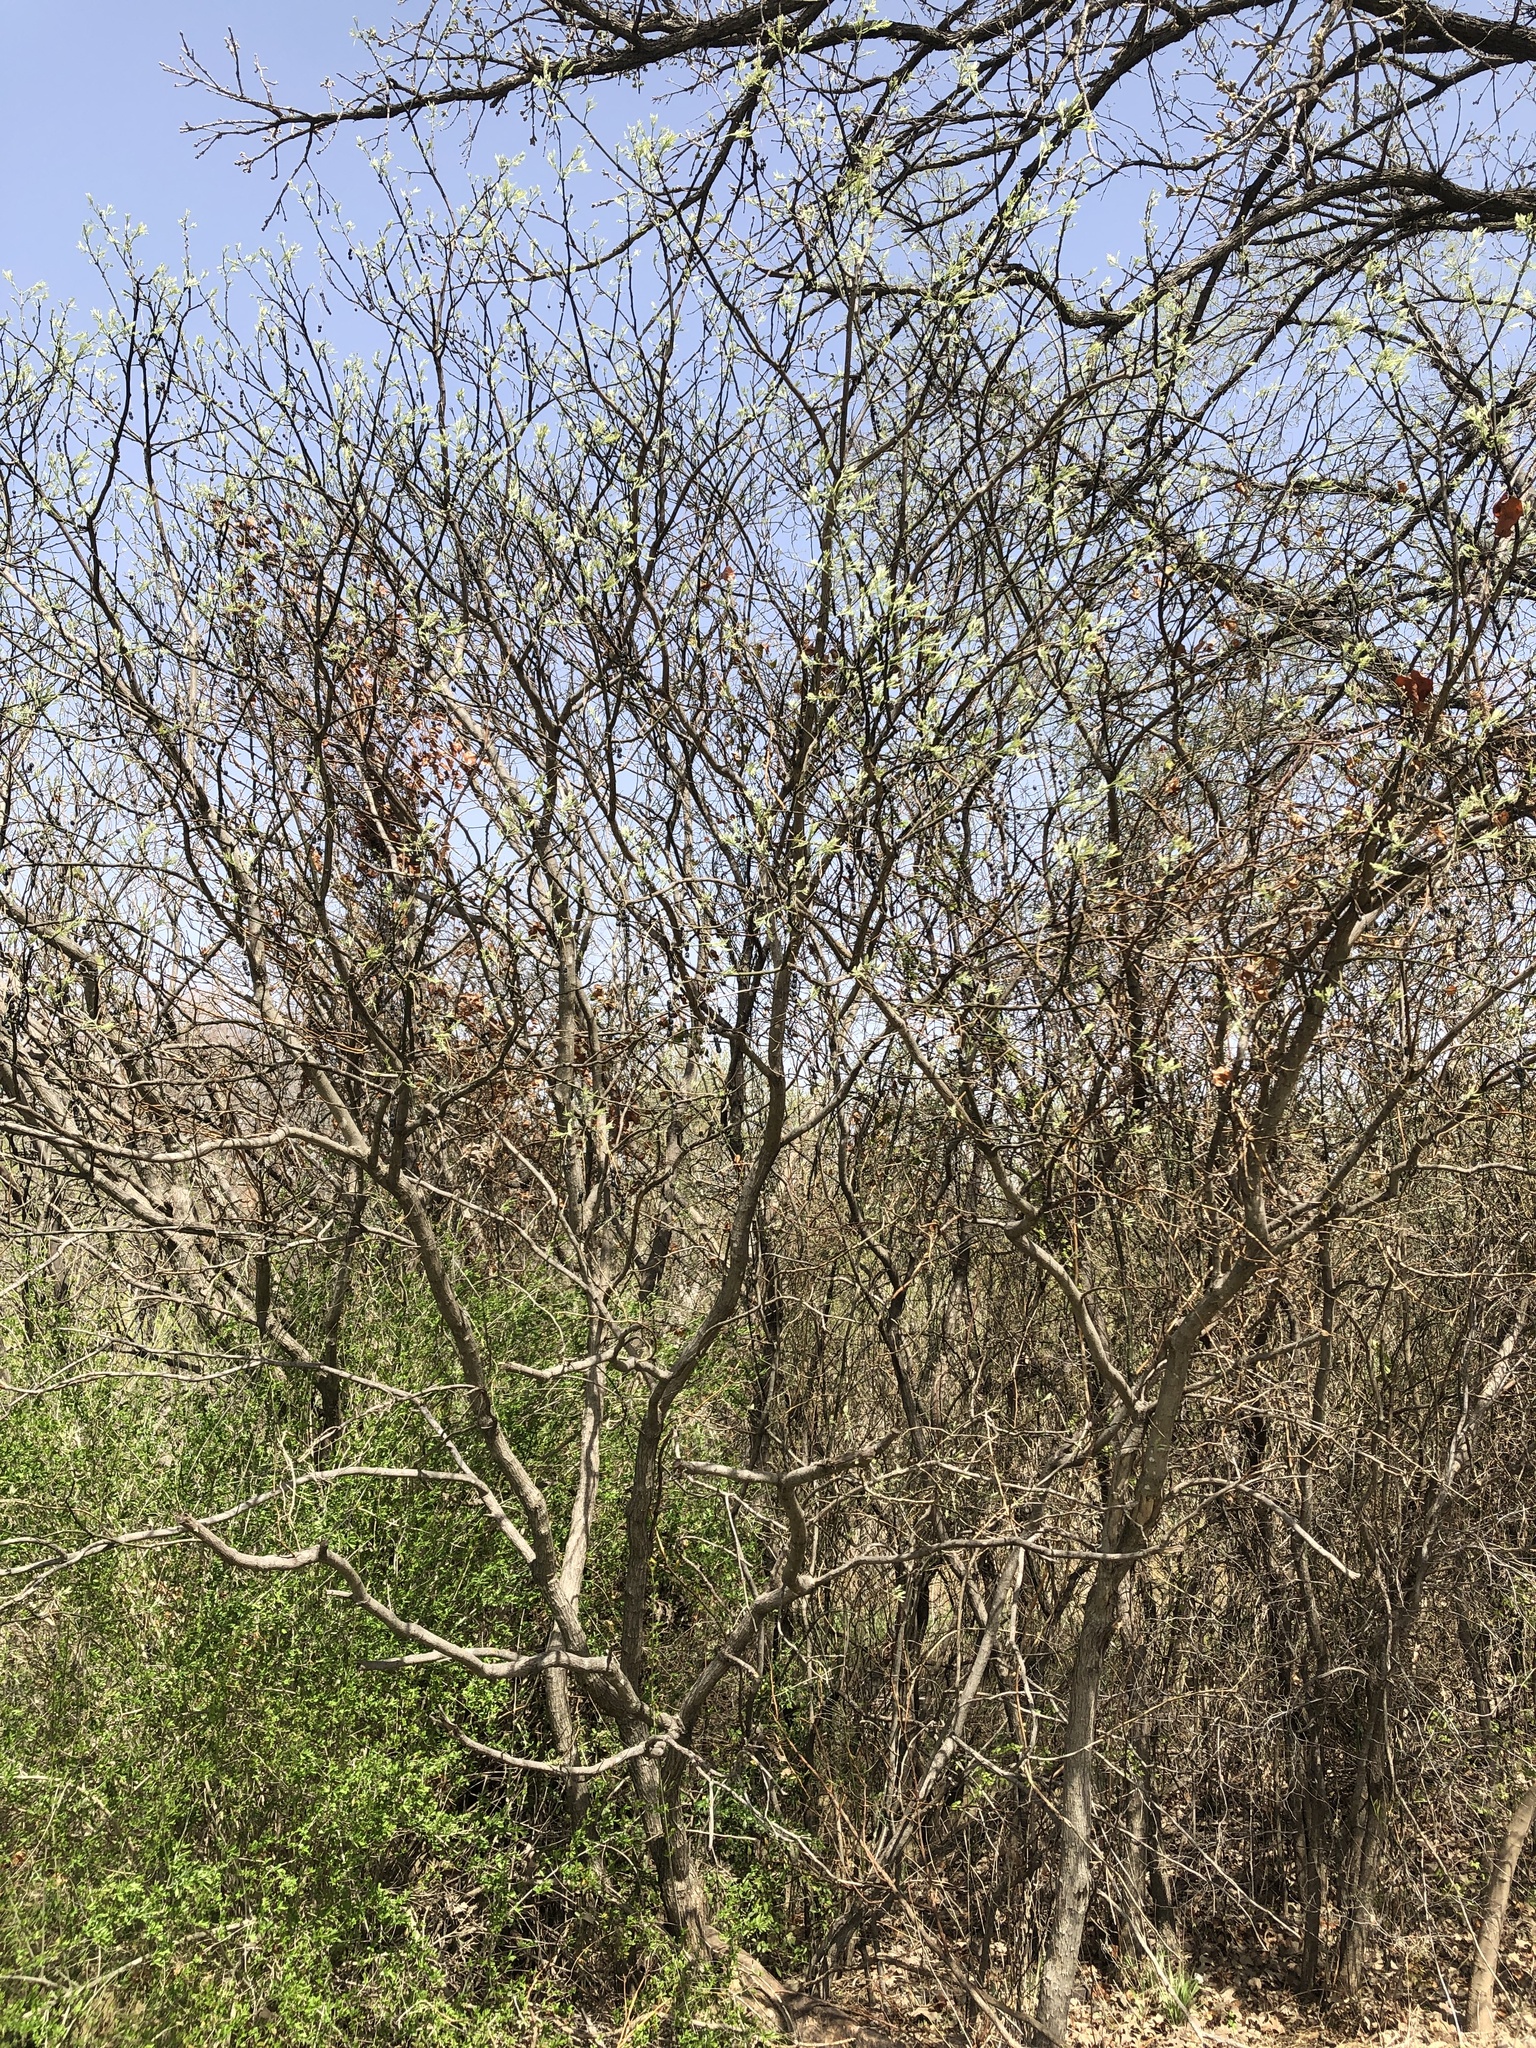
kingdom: Plantae
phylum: Tracheophyta
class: Magnoliopsida
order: Fabales
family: Fabaceae
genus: Styphnolobium
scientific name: Styphnolobium affine
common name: Texas sophora
